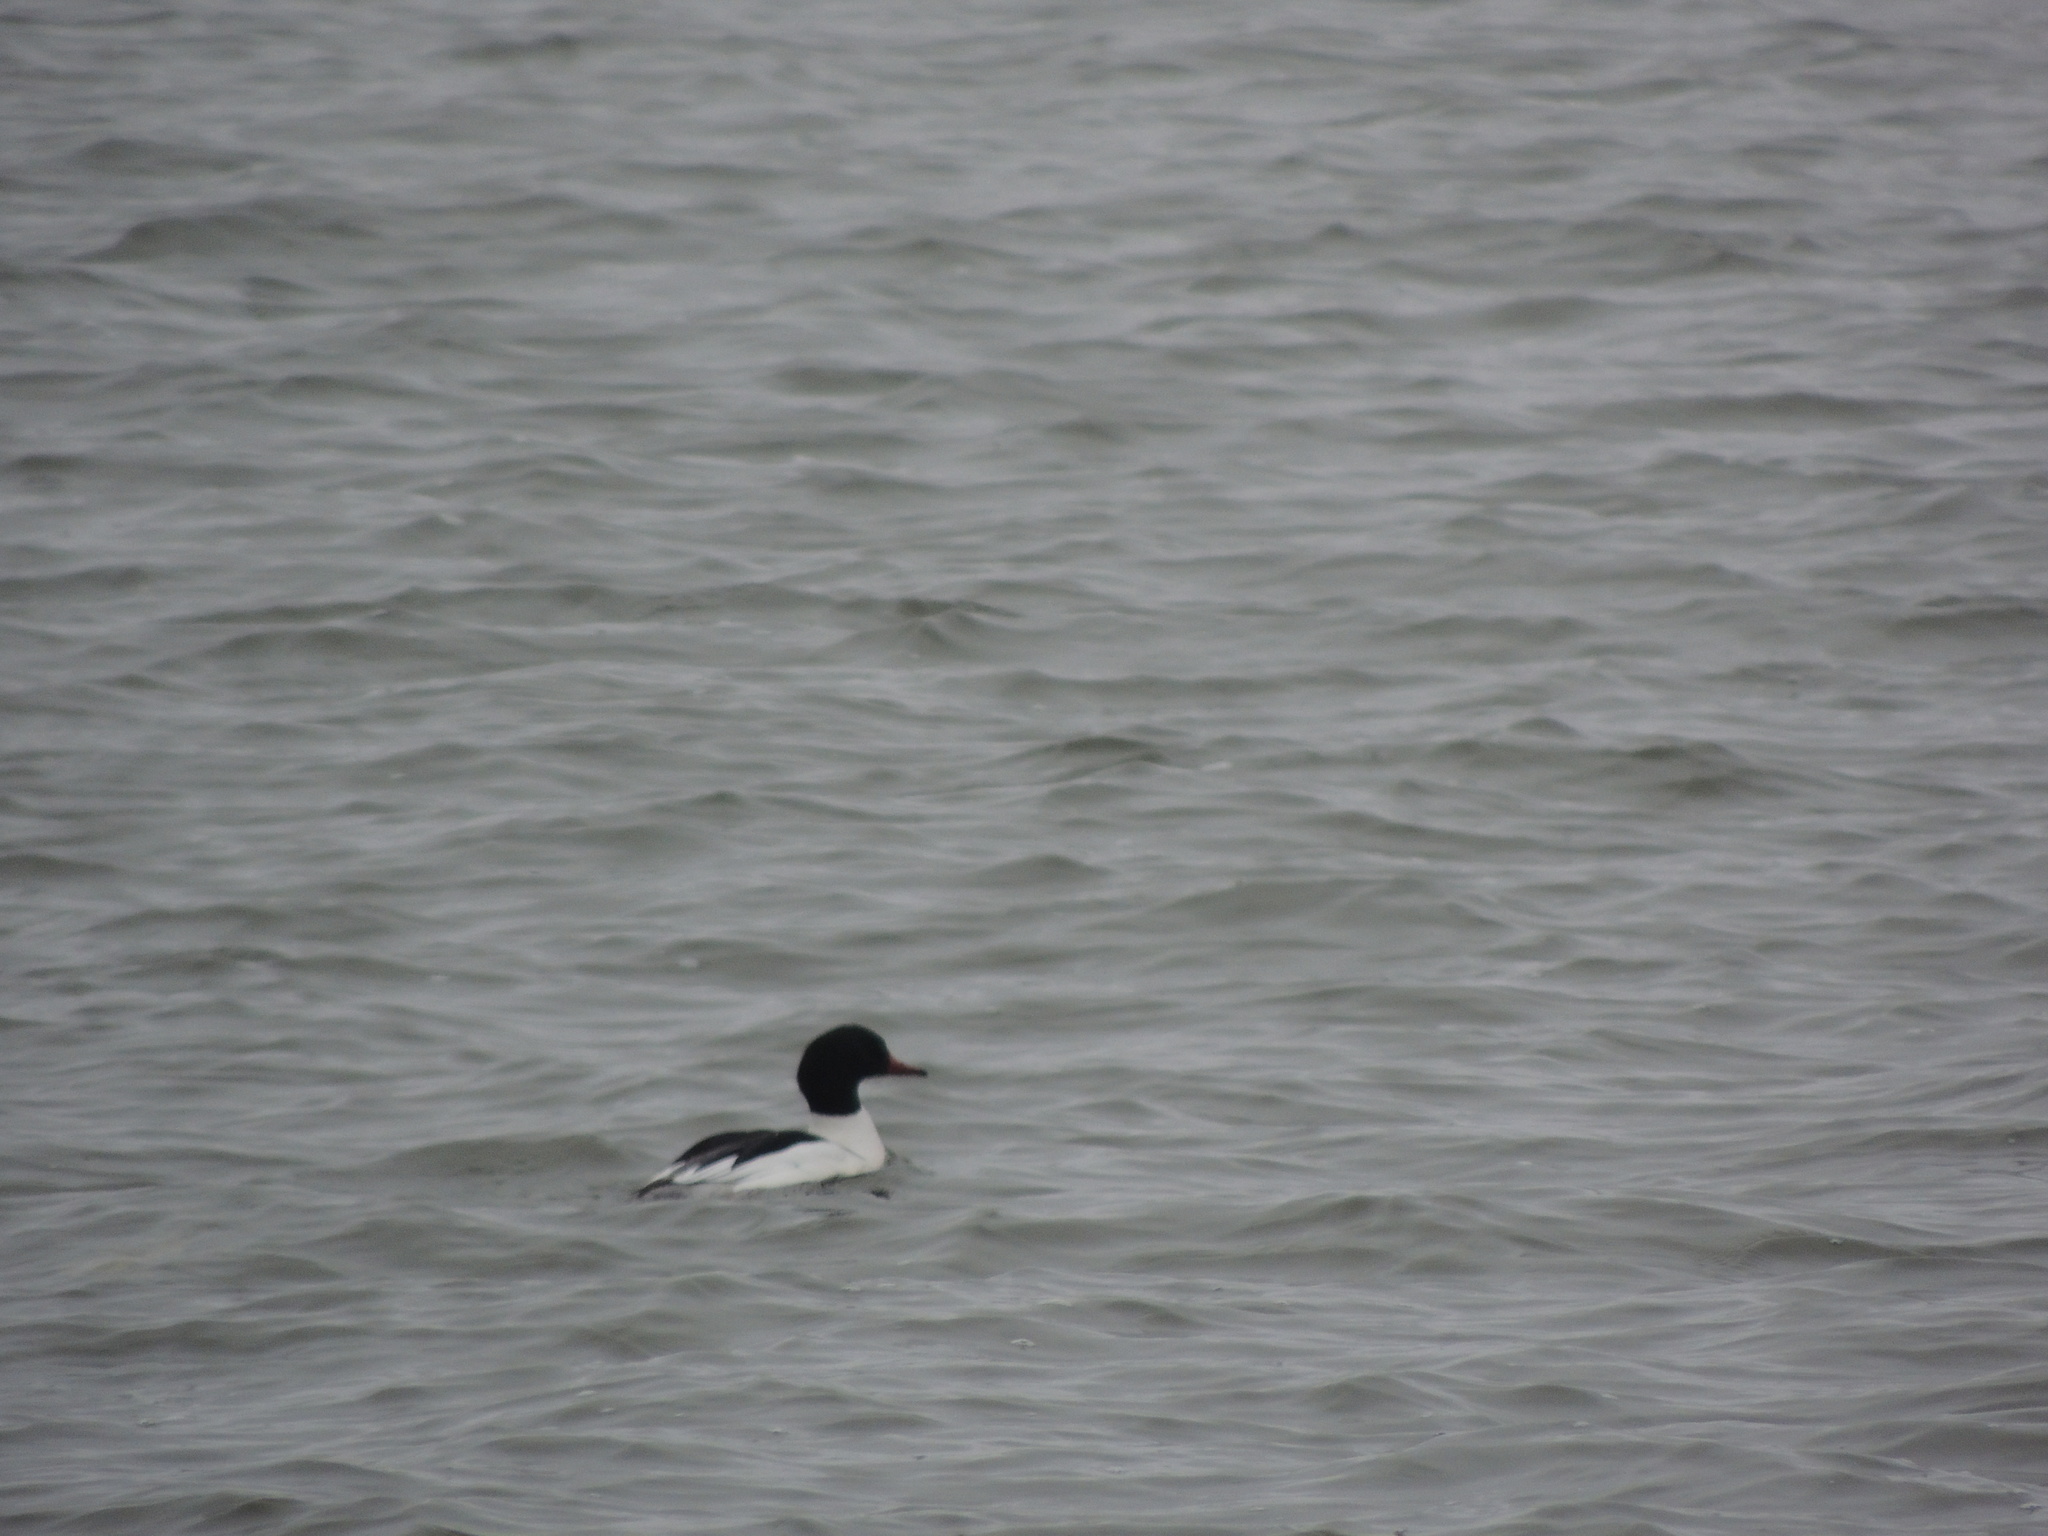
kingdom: Animalia
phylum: Chordata
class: Aves
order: Anseriformes
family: Anatidae
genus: Mergus
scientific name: Mergus merganser
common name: Common merganser
